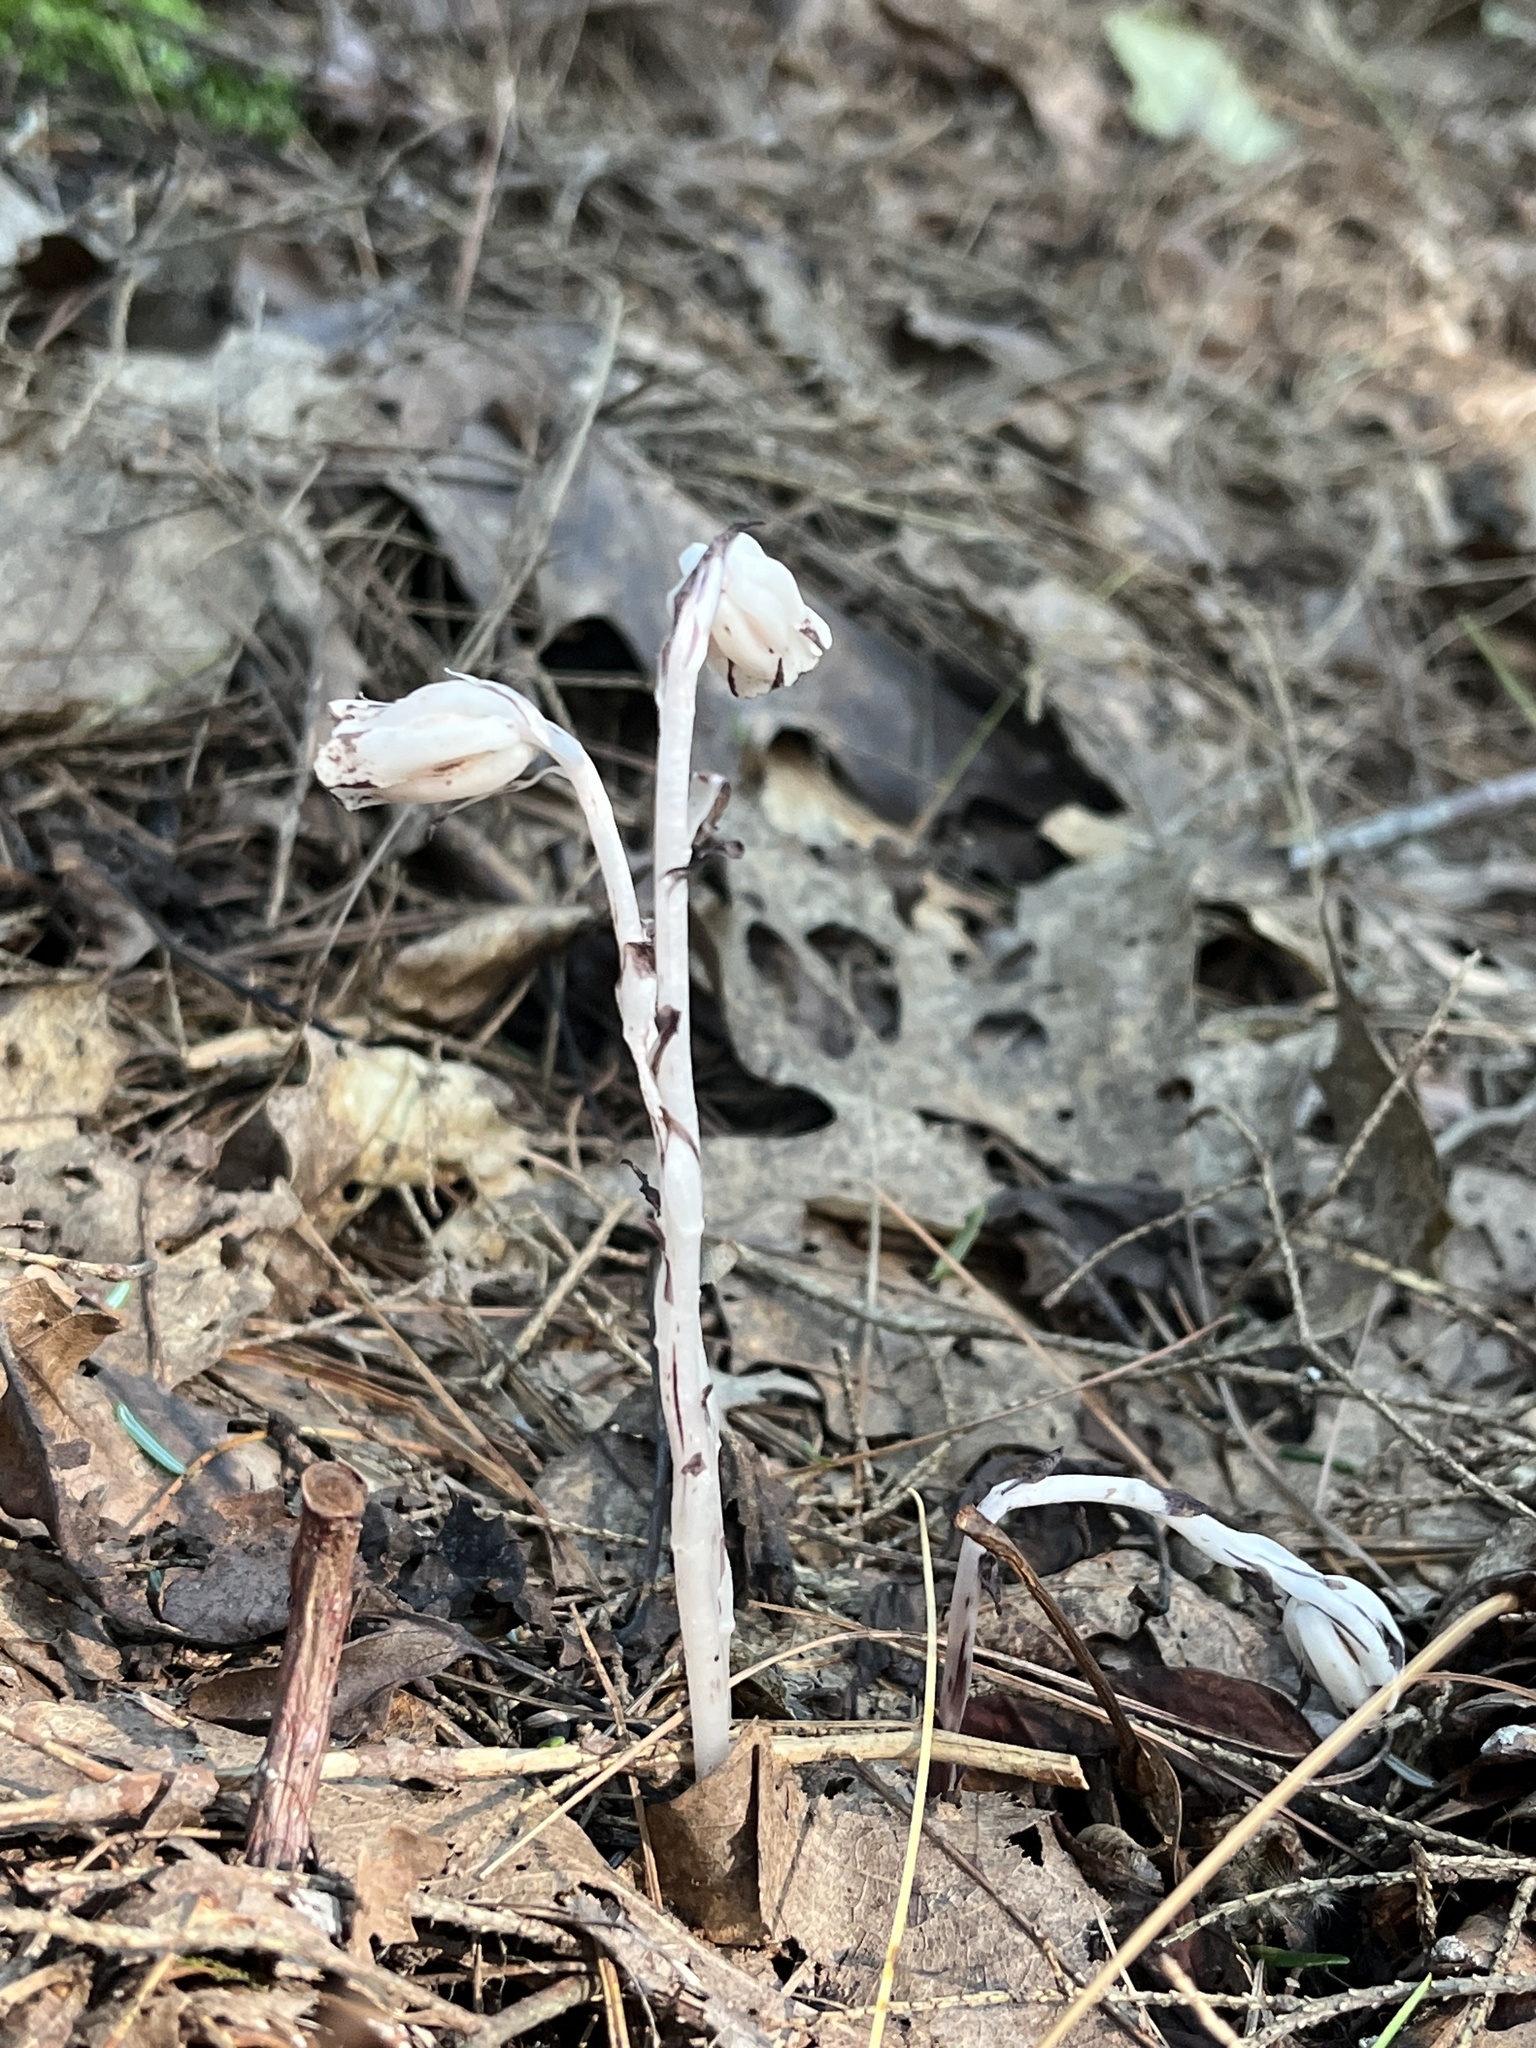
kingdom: Plantae
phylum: Tracheophyta
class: Magnoliopsida
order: Ericales
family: Ericaceae
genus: Monotropa
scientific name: Monotropa uniflora
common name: Convulsion root
